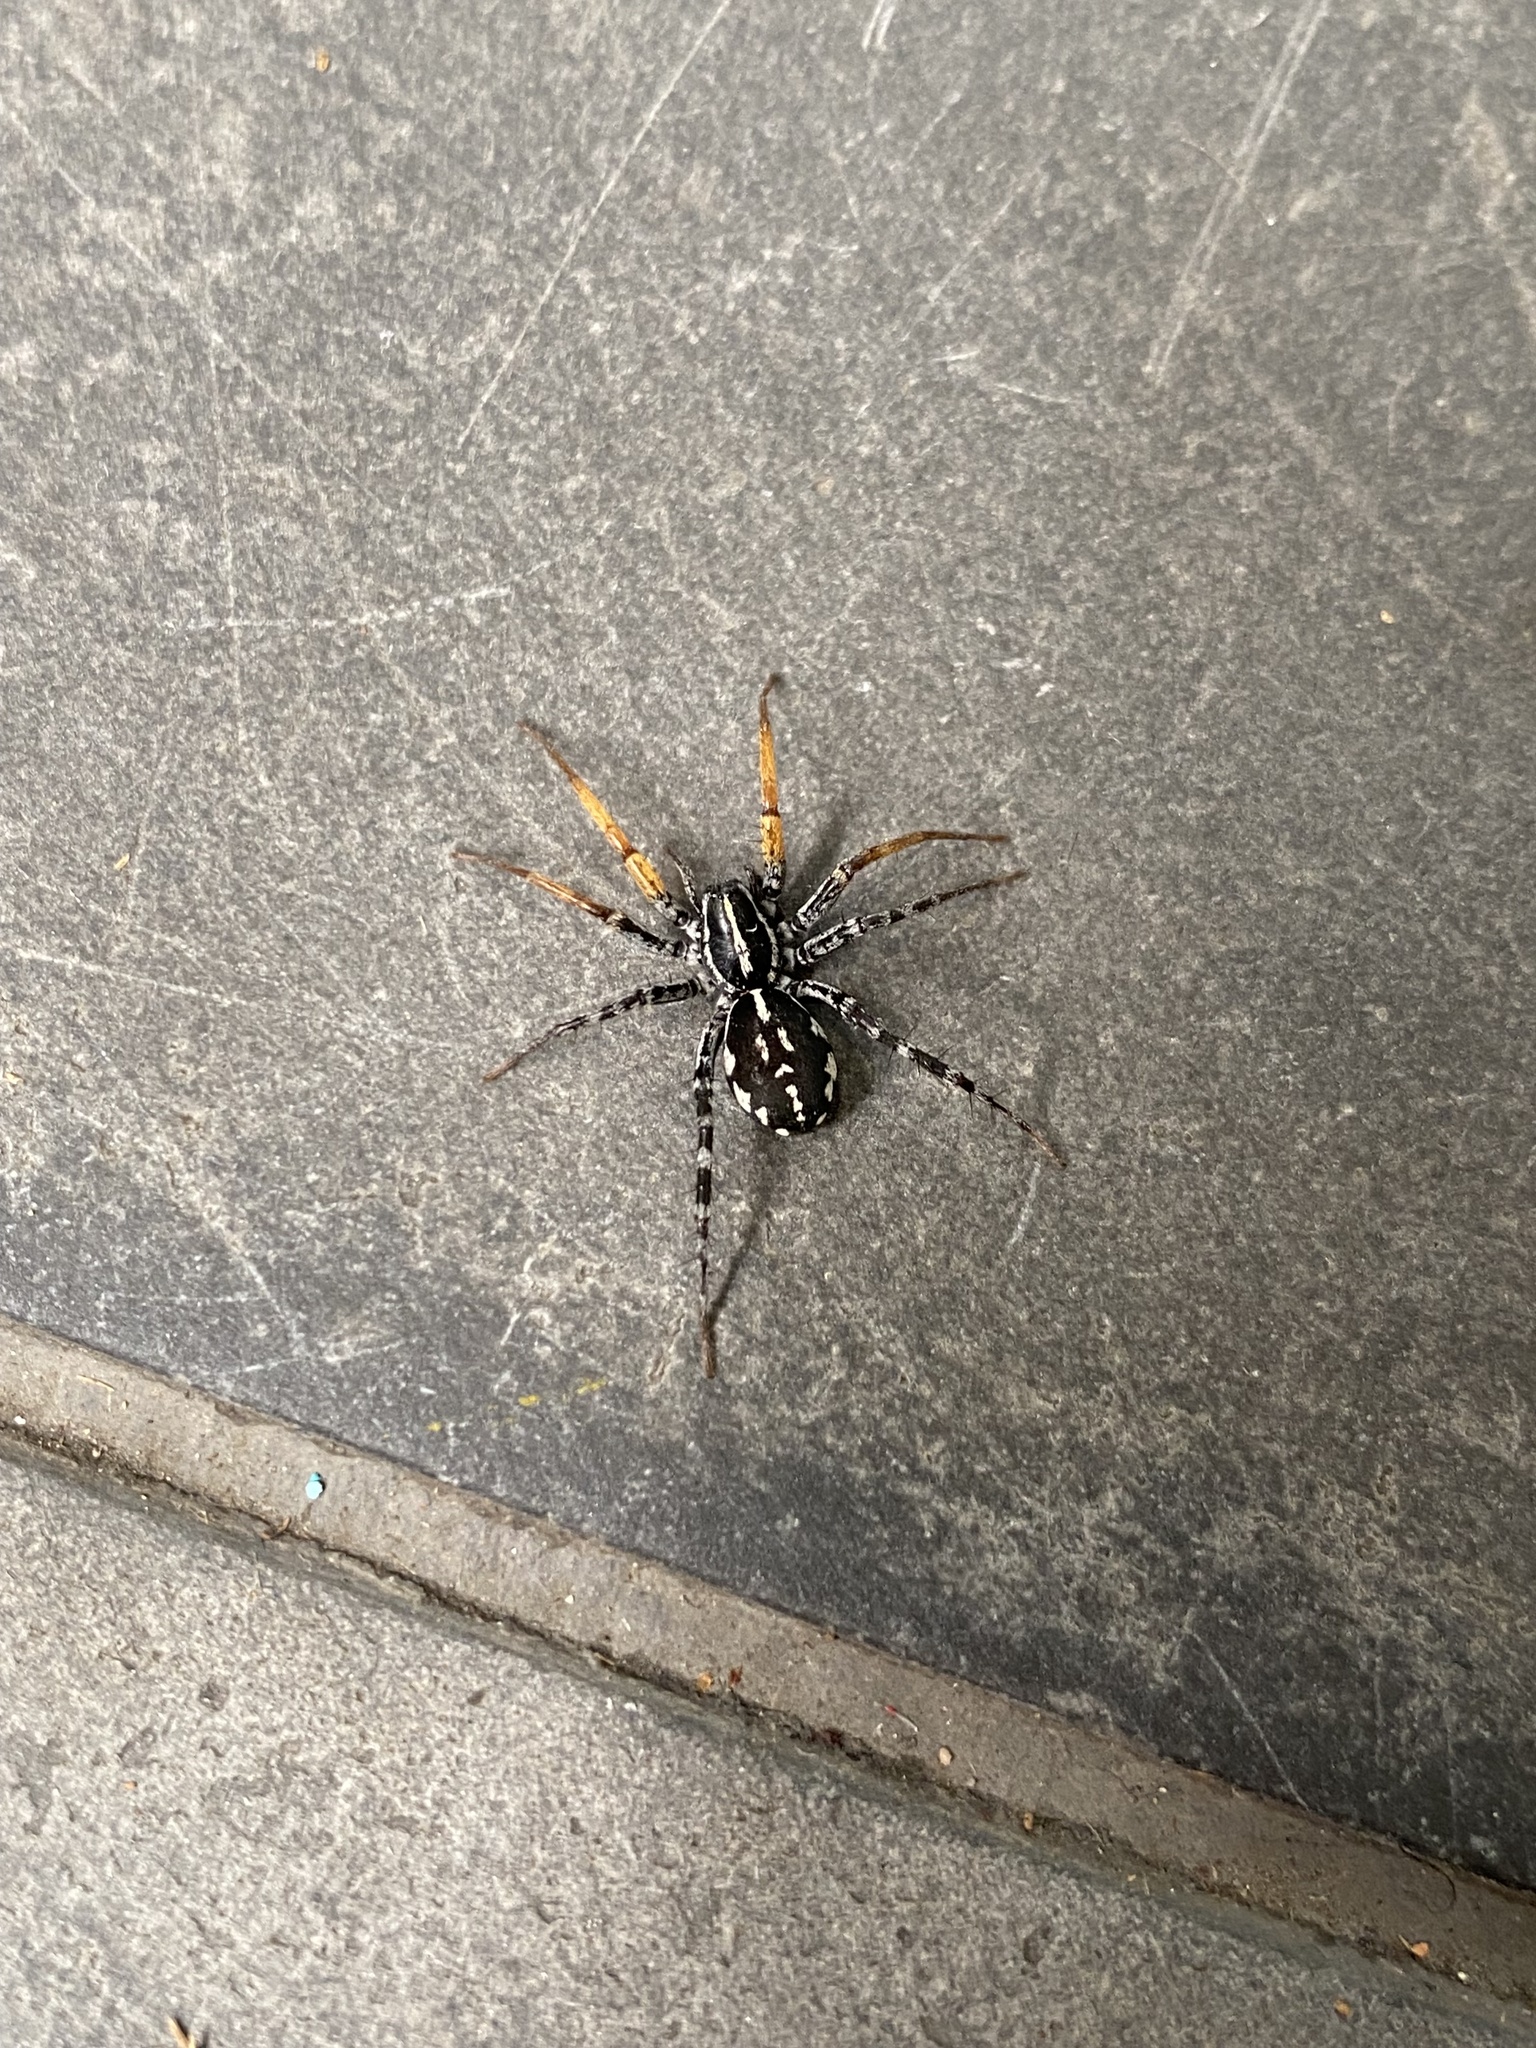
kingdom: Animalia
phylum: Arthropoda
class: Arachnida
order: Araneae
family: Corinnidae
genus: Nyssus
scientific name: Nyssus coloripes
